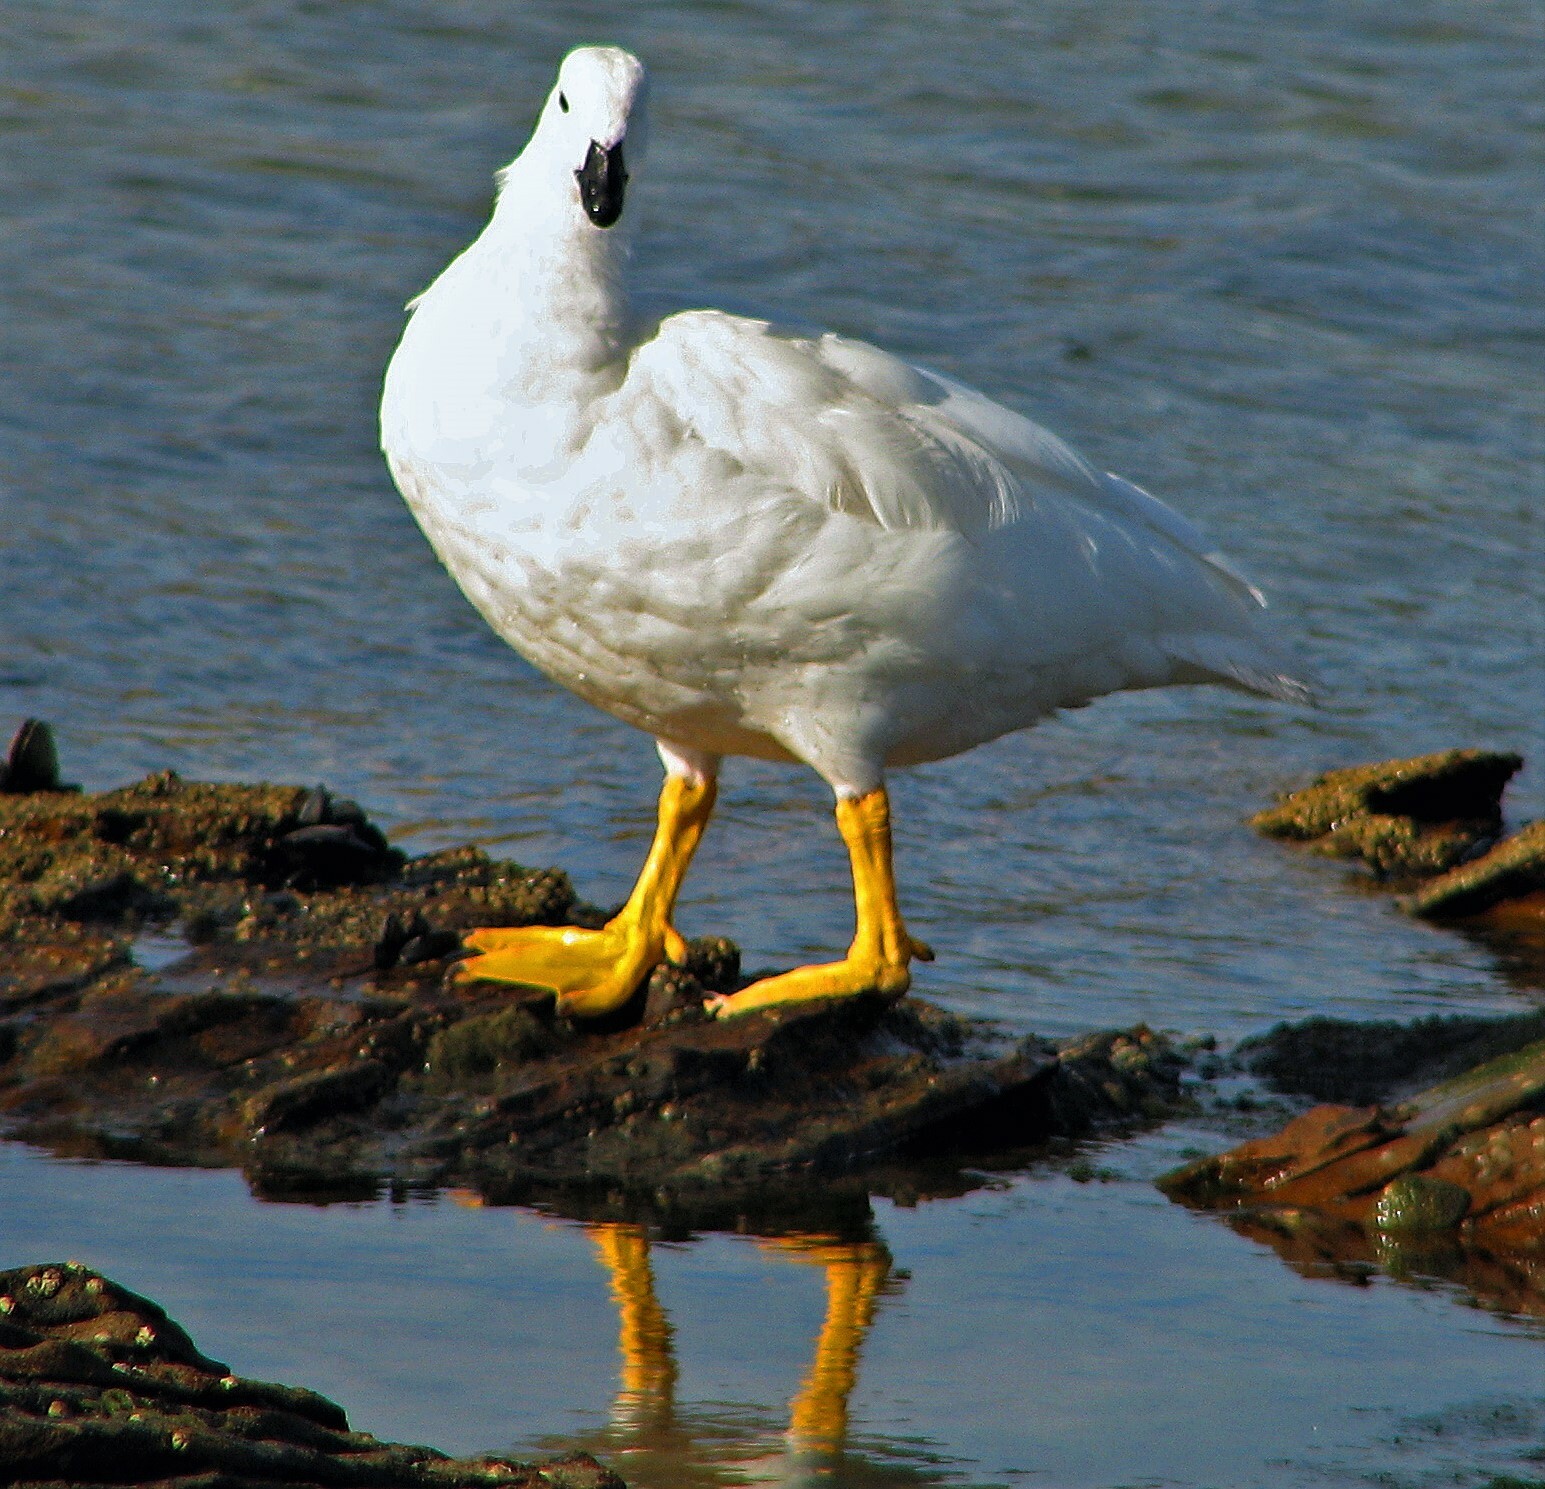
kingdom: Animalia
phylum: Chordata
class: Aves
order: Anseriformes
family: Anatidae
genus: Chloephaga
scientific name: Chloephaga hybrida
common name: Kelp goose
